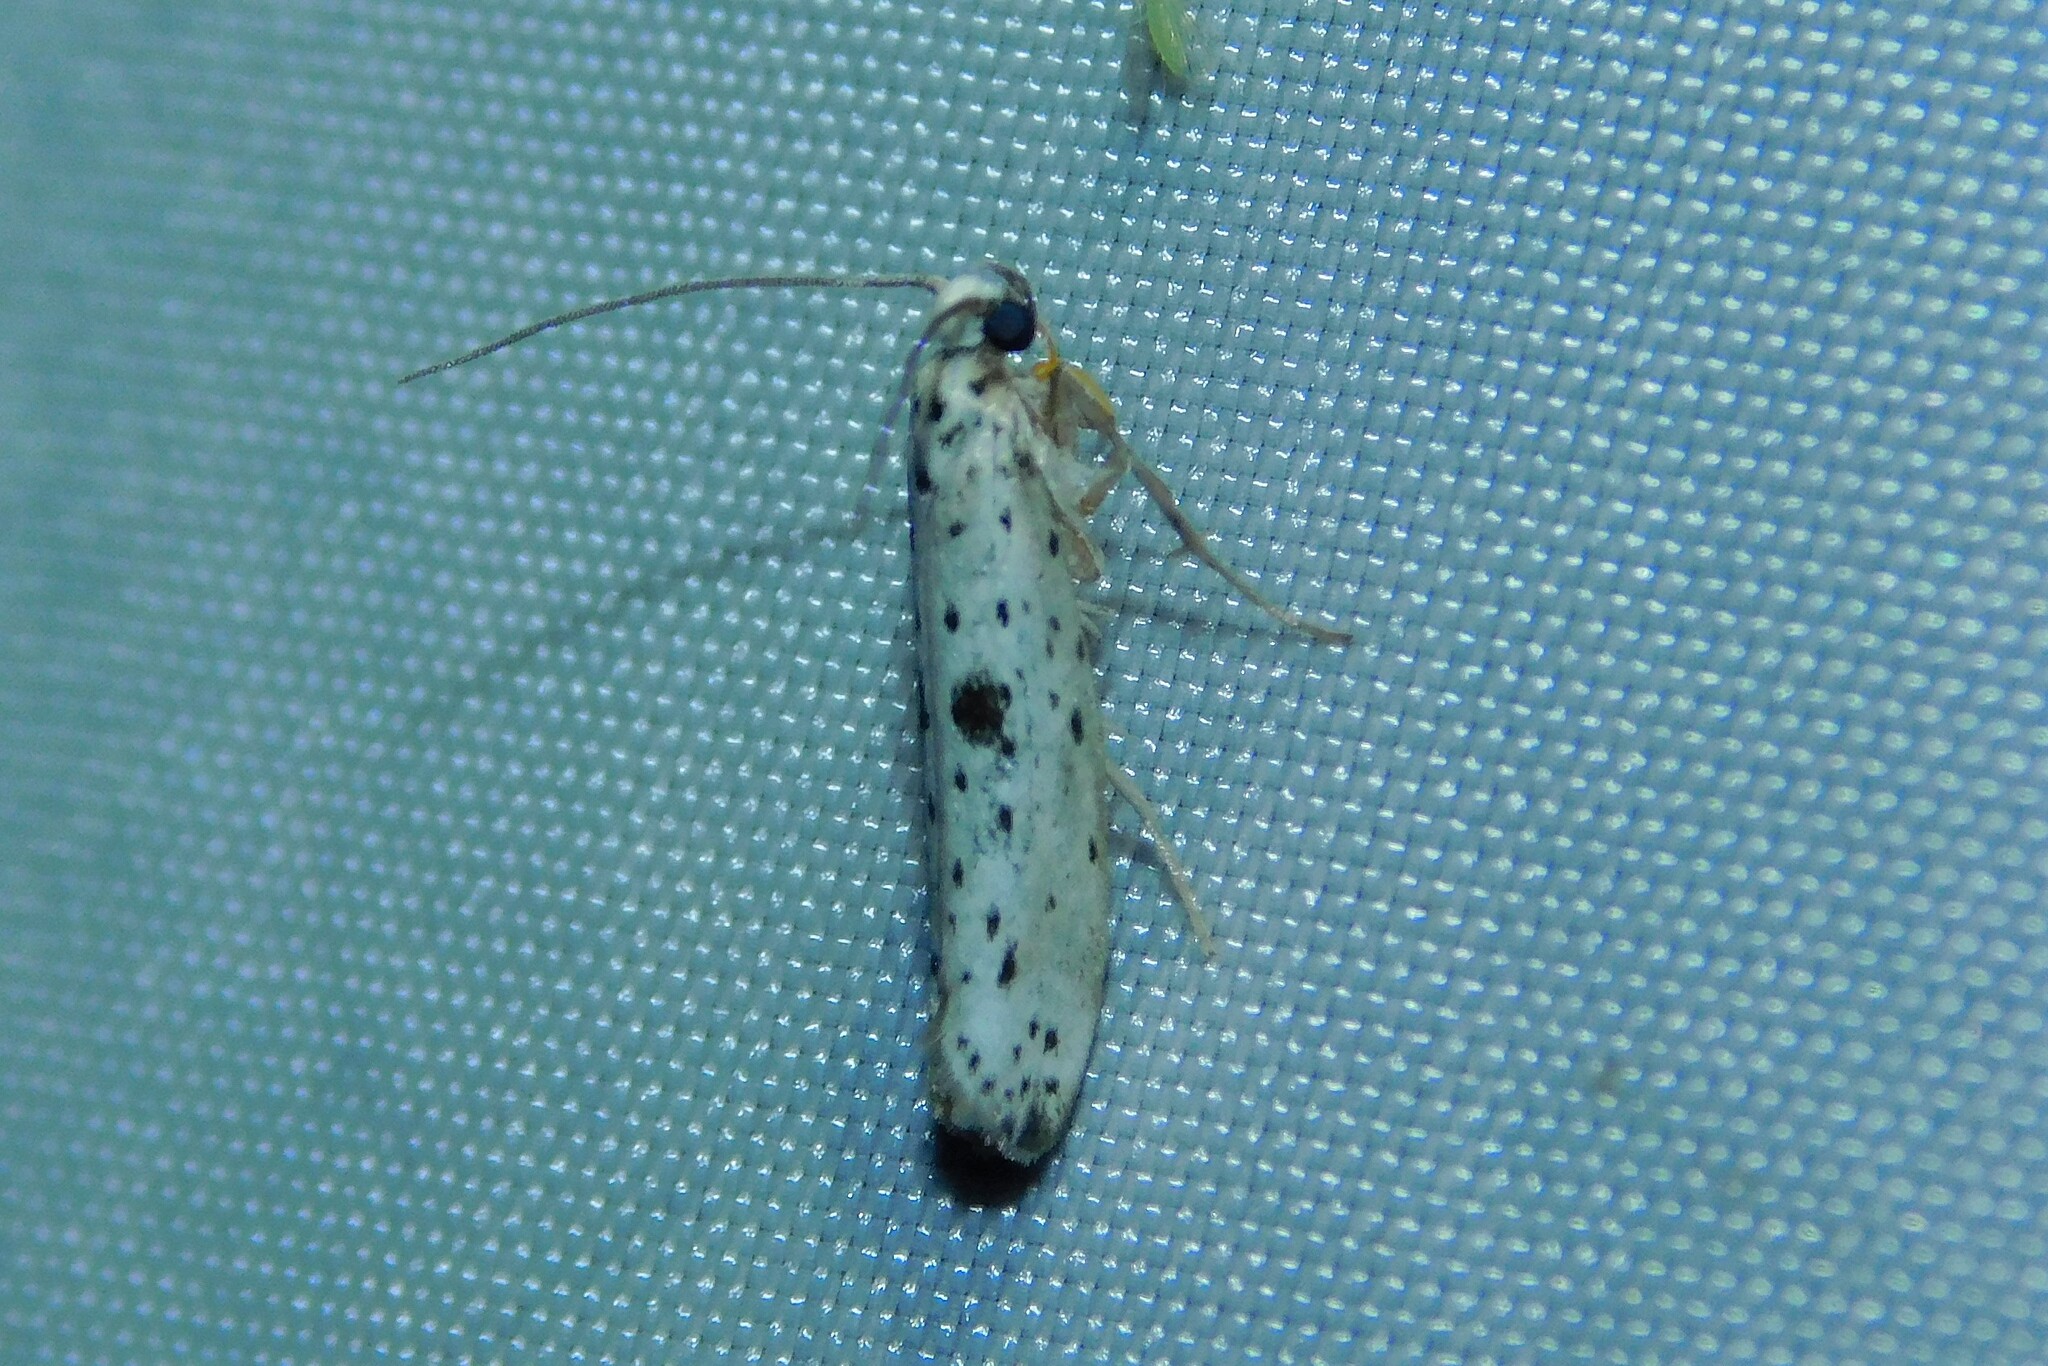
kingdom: Animalia
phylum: Arthropoda
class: Insecta
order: Lepidoptera
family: Yponomeutidae
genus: Yponomeuta
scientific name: Yponomeuta plumbella
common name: Black-tipped ermine
